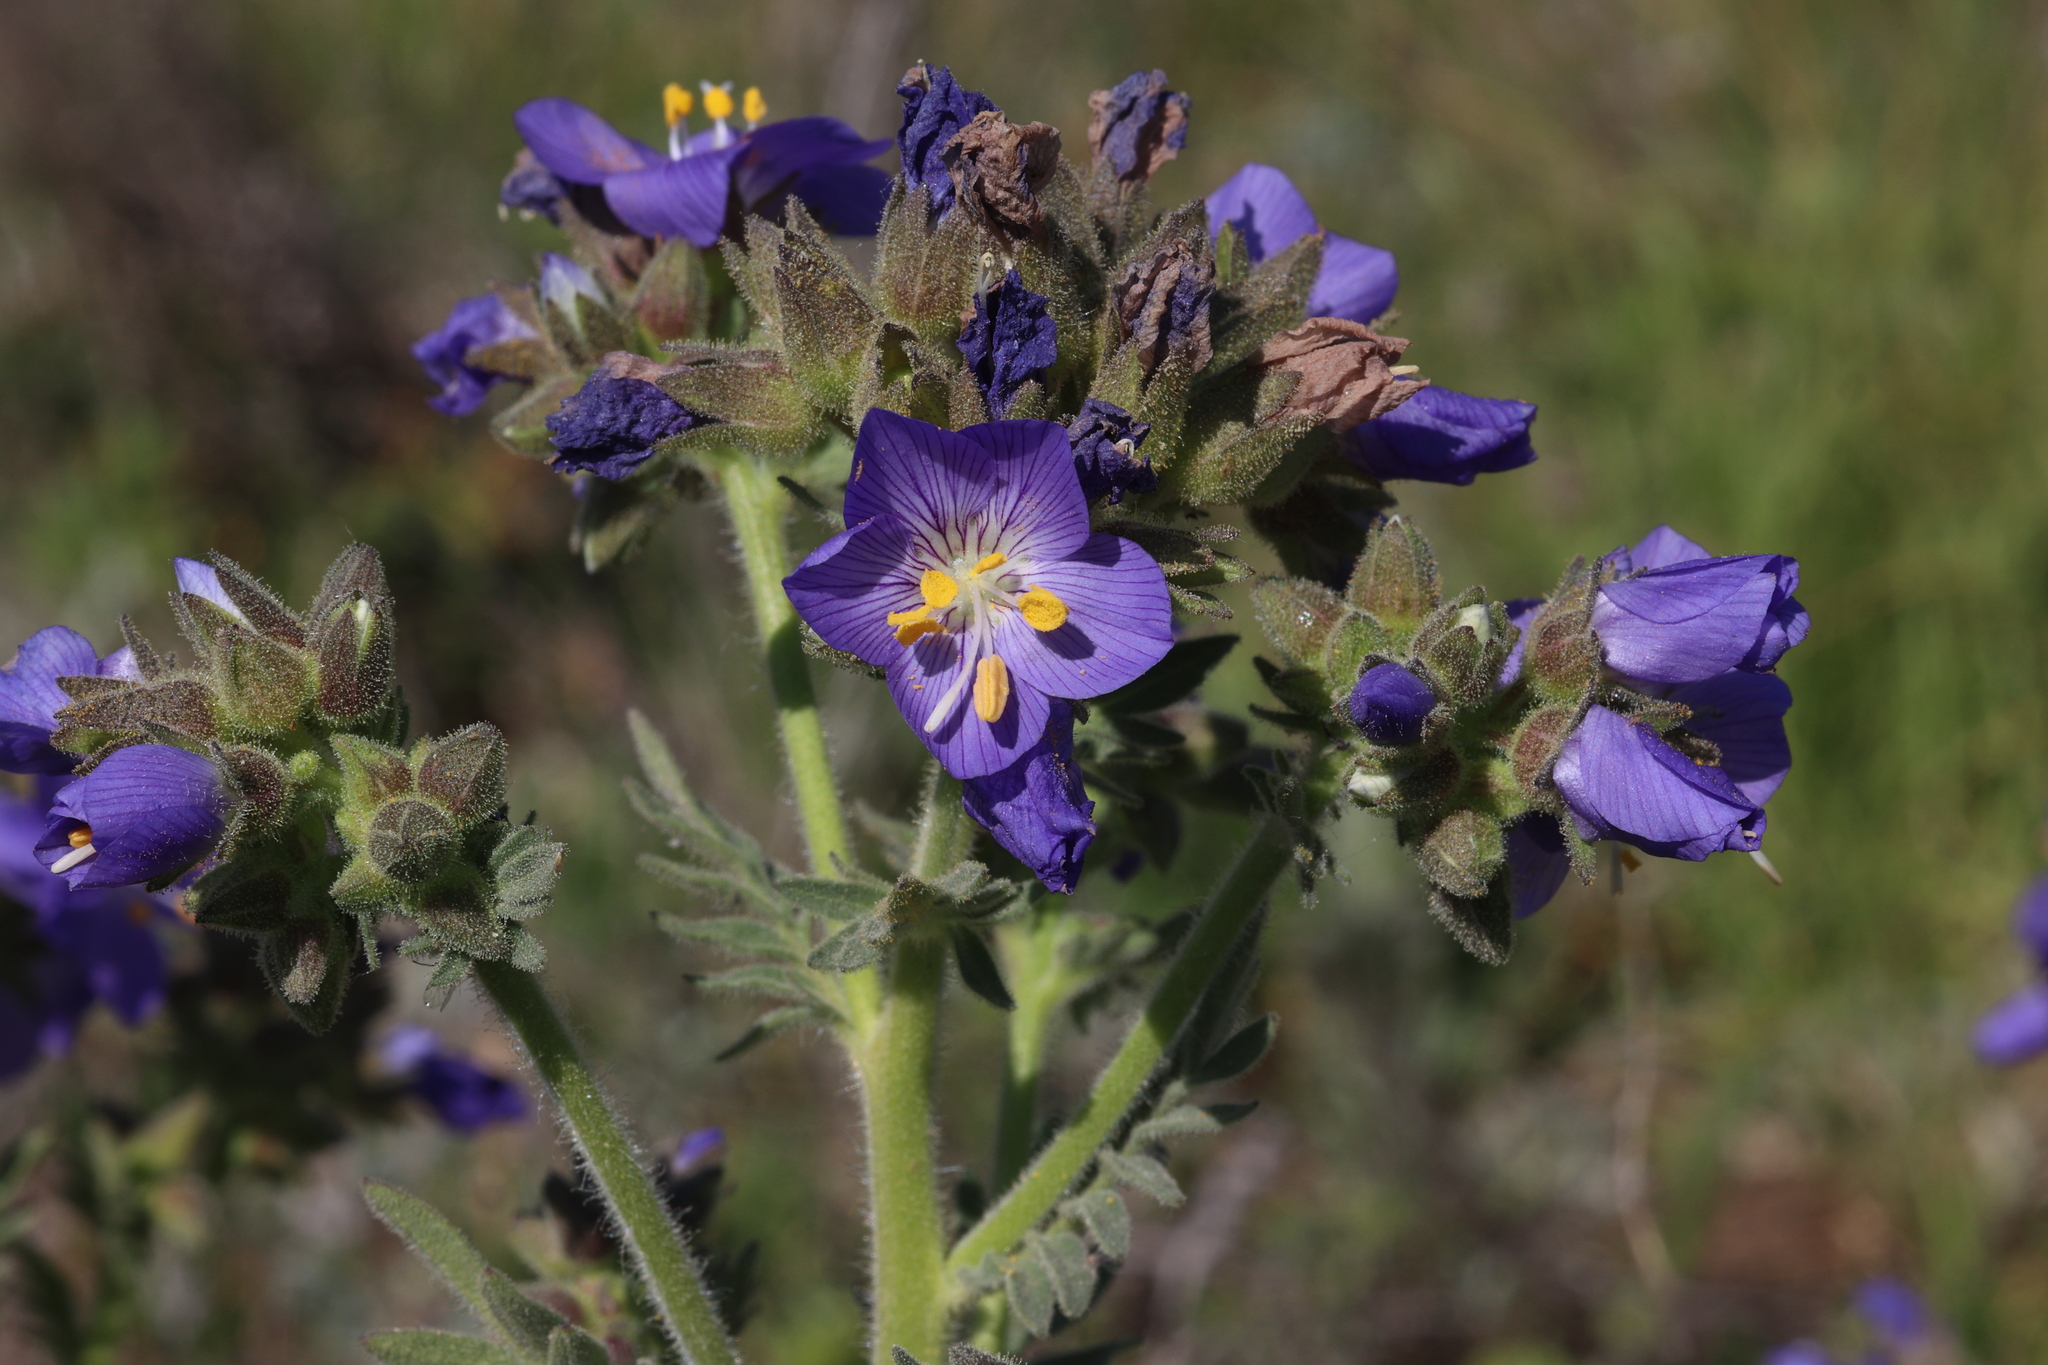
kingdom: Plantae
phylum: Tracheophyta
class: Magnoliopsida
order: Ericales
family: Polemoniaceae
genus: Polemonium
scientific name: Polemonium foliosissimum
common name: Leafy jacob's-ladder
